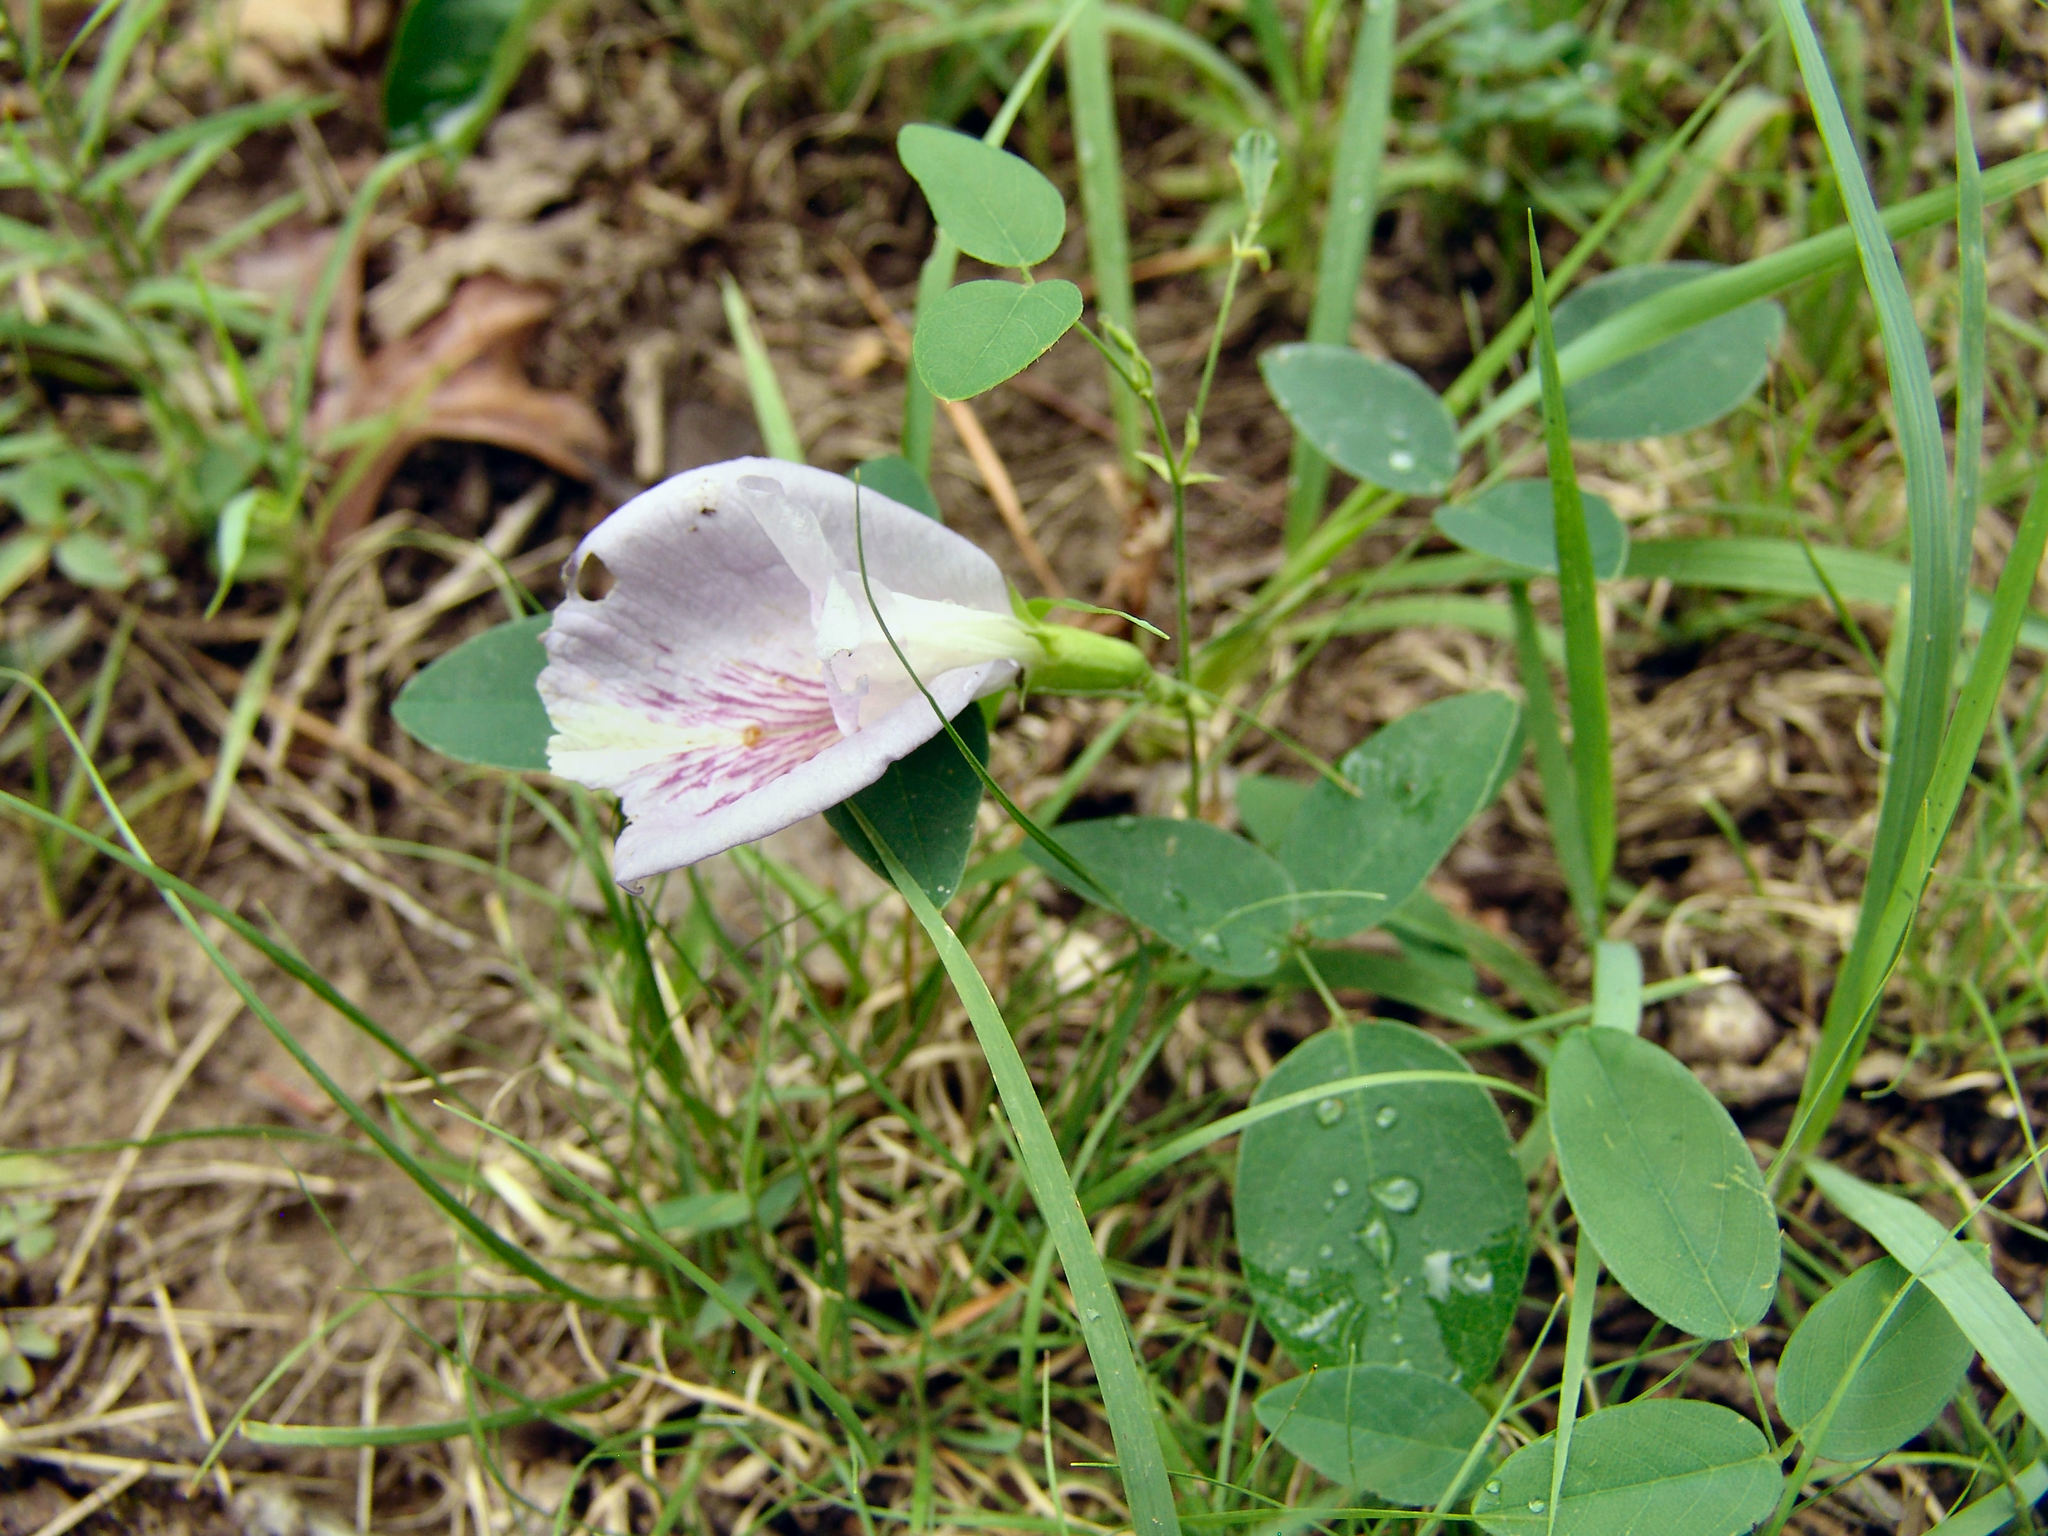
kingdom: Plantae
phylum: Tracheophyta
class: Magnoliopsida
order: Fabales
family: Fabaceae
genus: Clitoria
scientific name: Clitoria mariana
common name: Butterfly-pea
